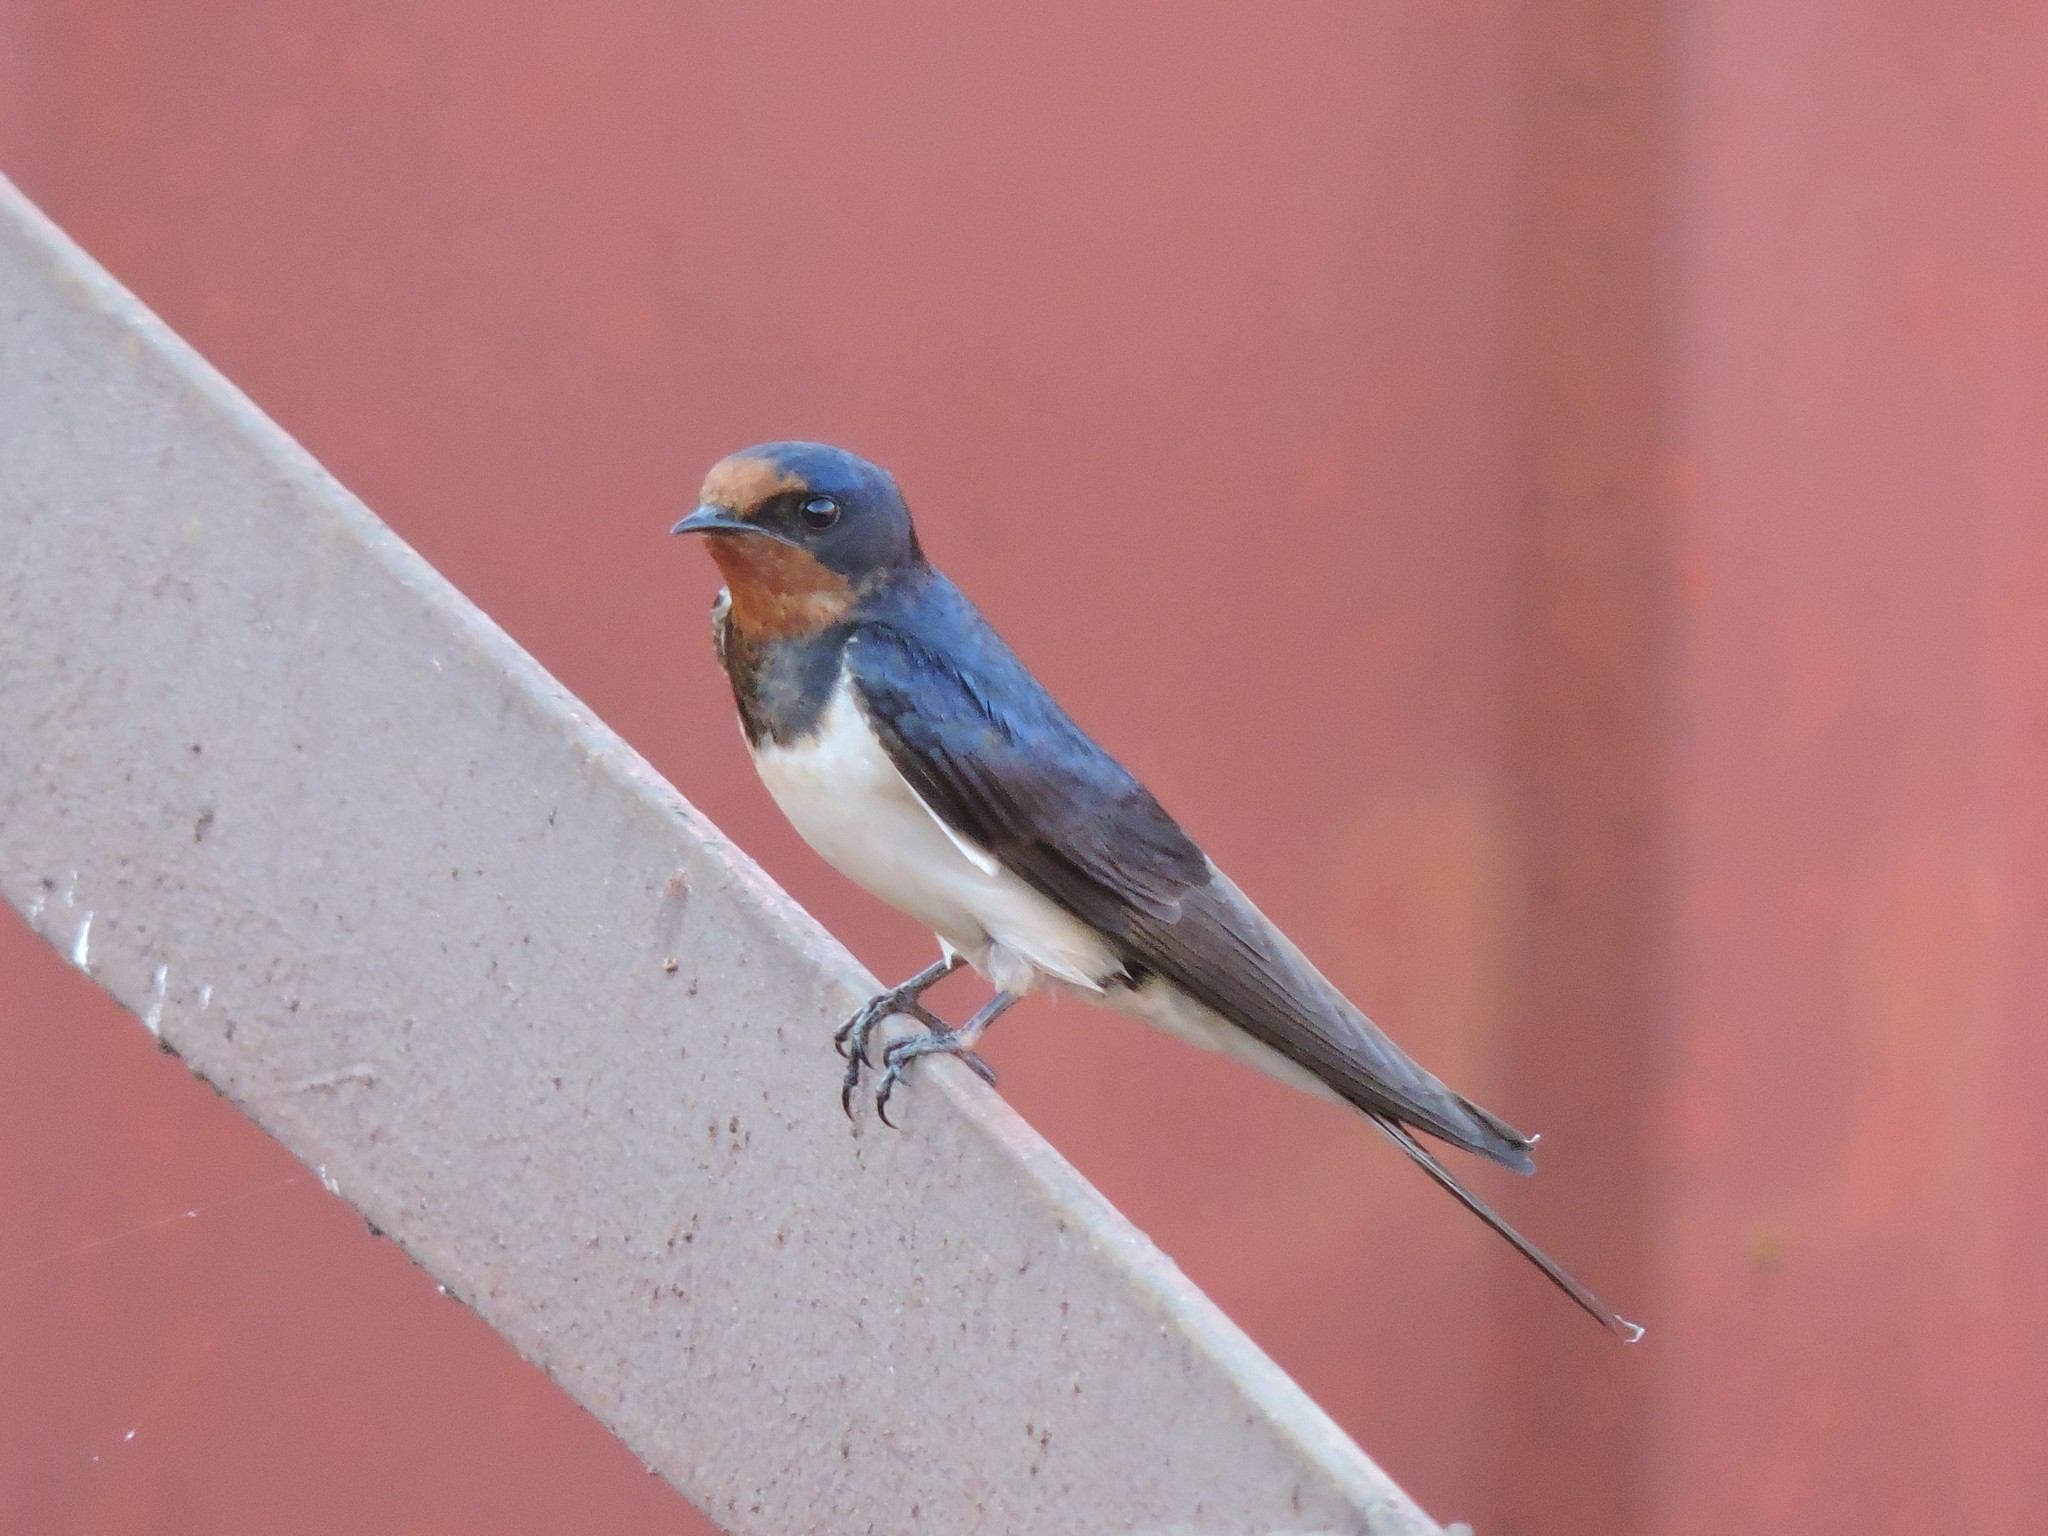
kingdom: Animalia
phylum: Chordata
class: Aves
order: Passeriformes
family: Hirundinidae
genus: Hirundo
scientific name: Hirundo rustica
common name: Barn swallow
